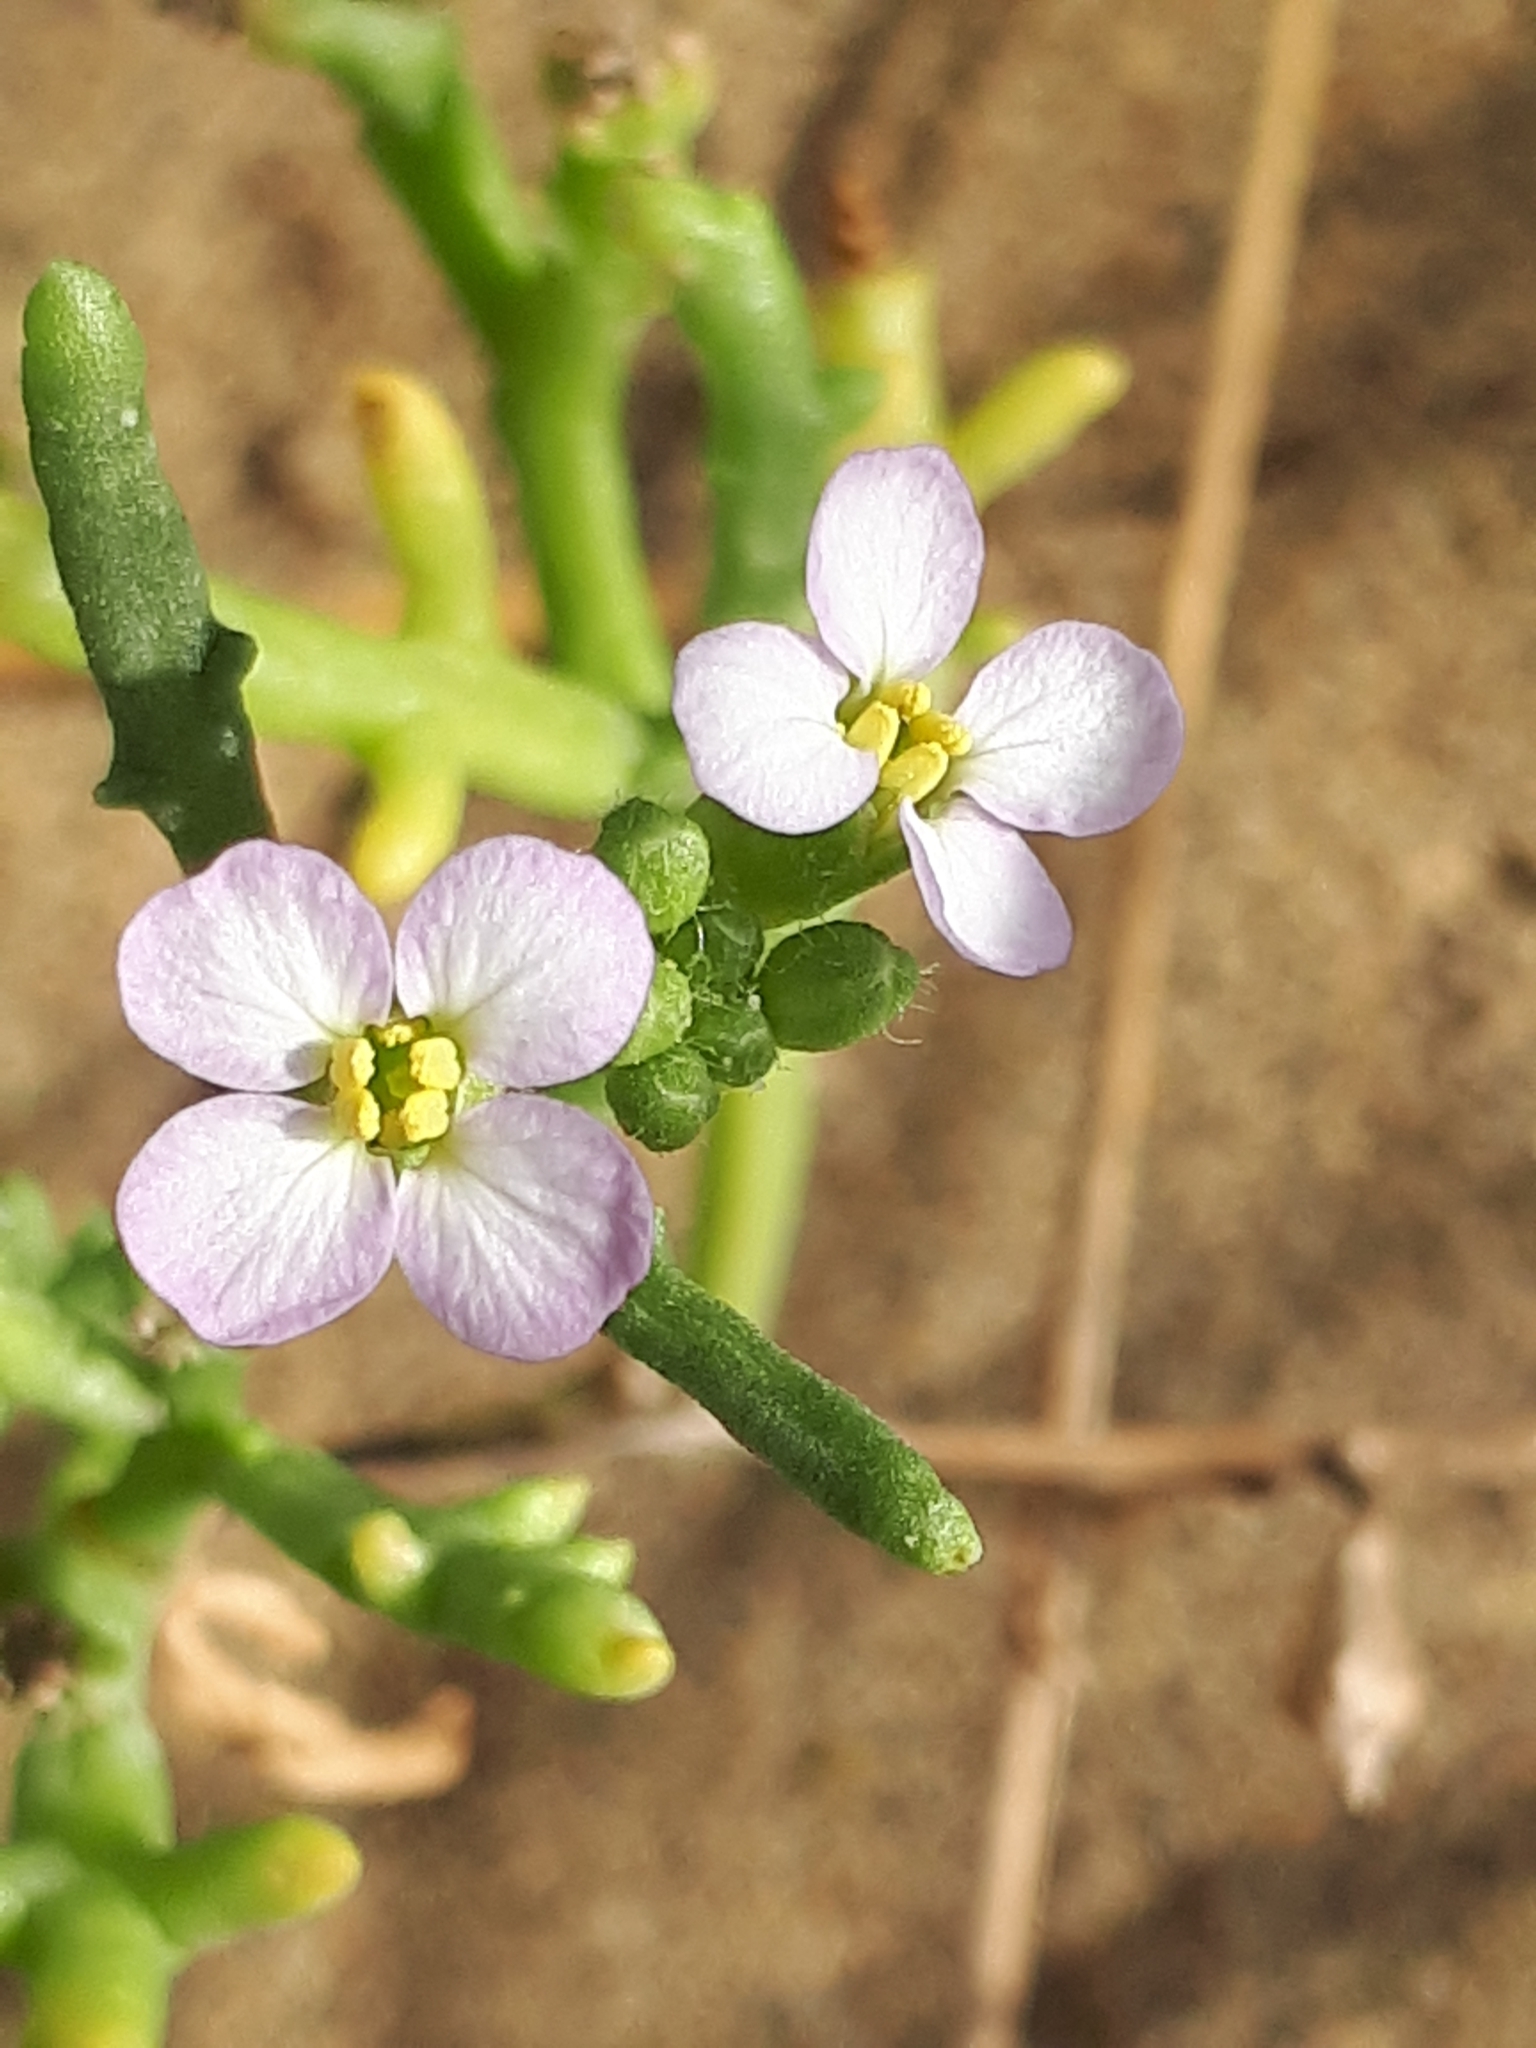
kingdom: Plantae
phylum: Tracheophyta
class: Magnoliopsida
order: Brassicales
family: Brassicaceae
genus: Cakile
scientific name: Cakile maritima
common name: Sea rocket
